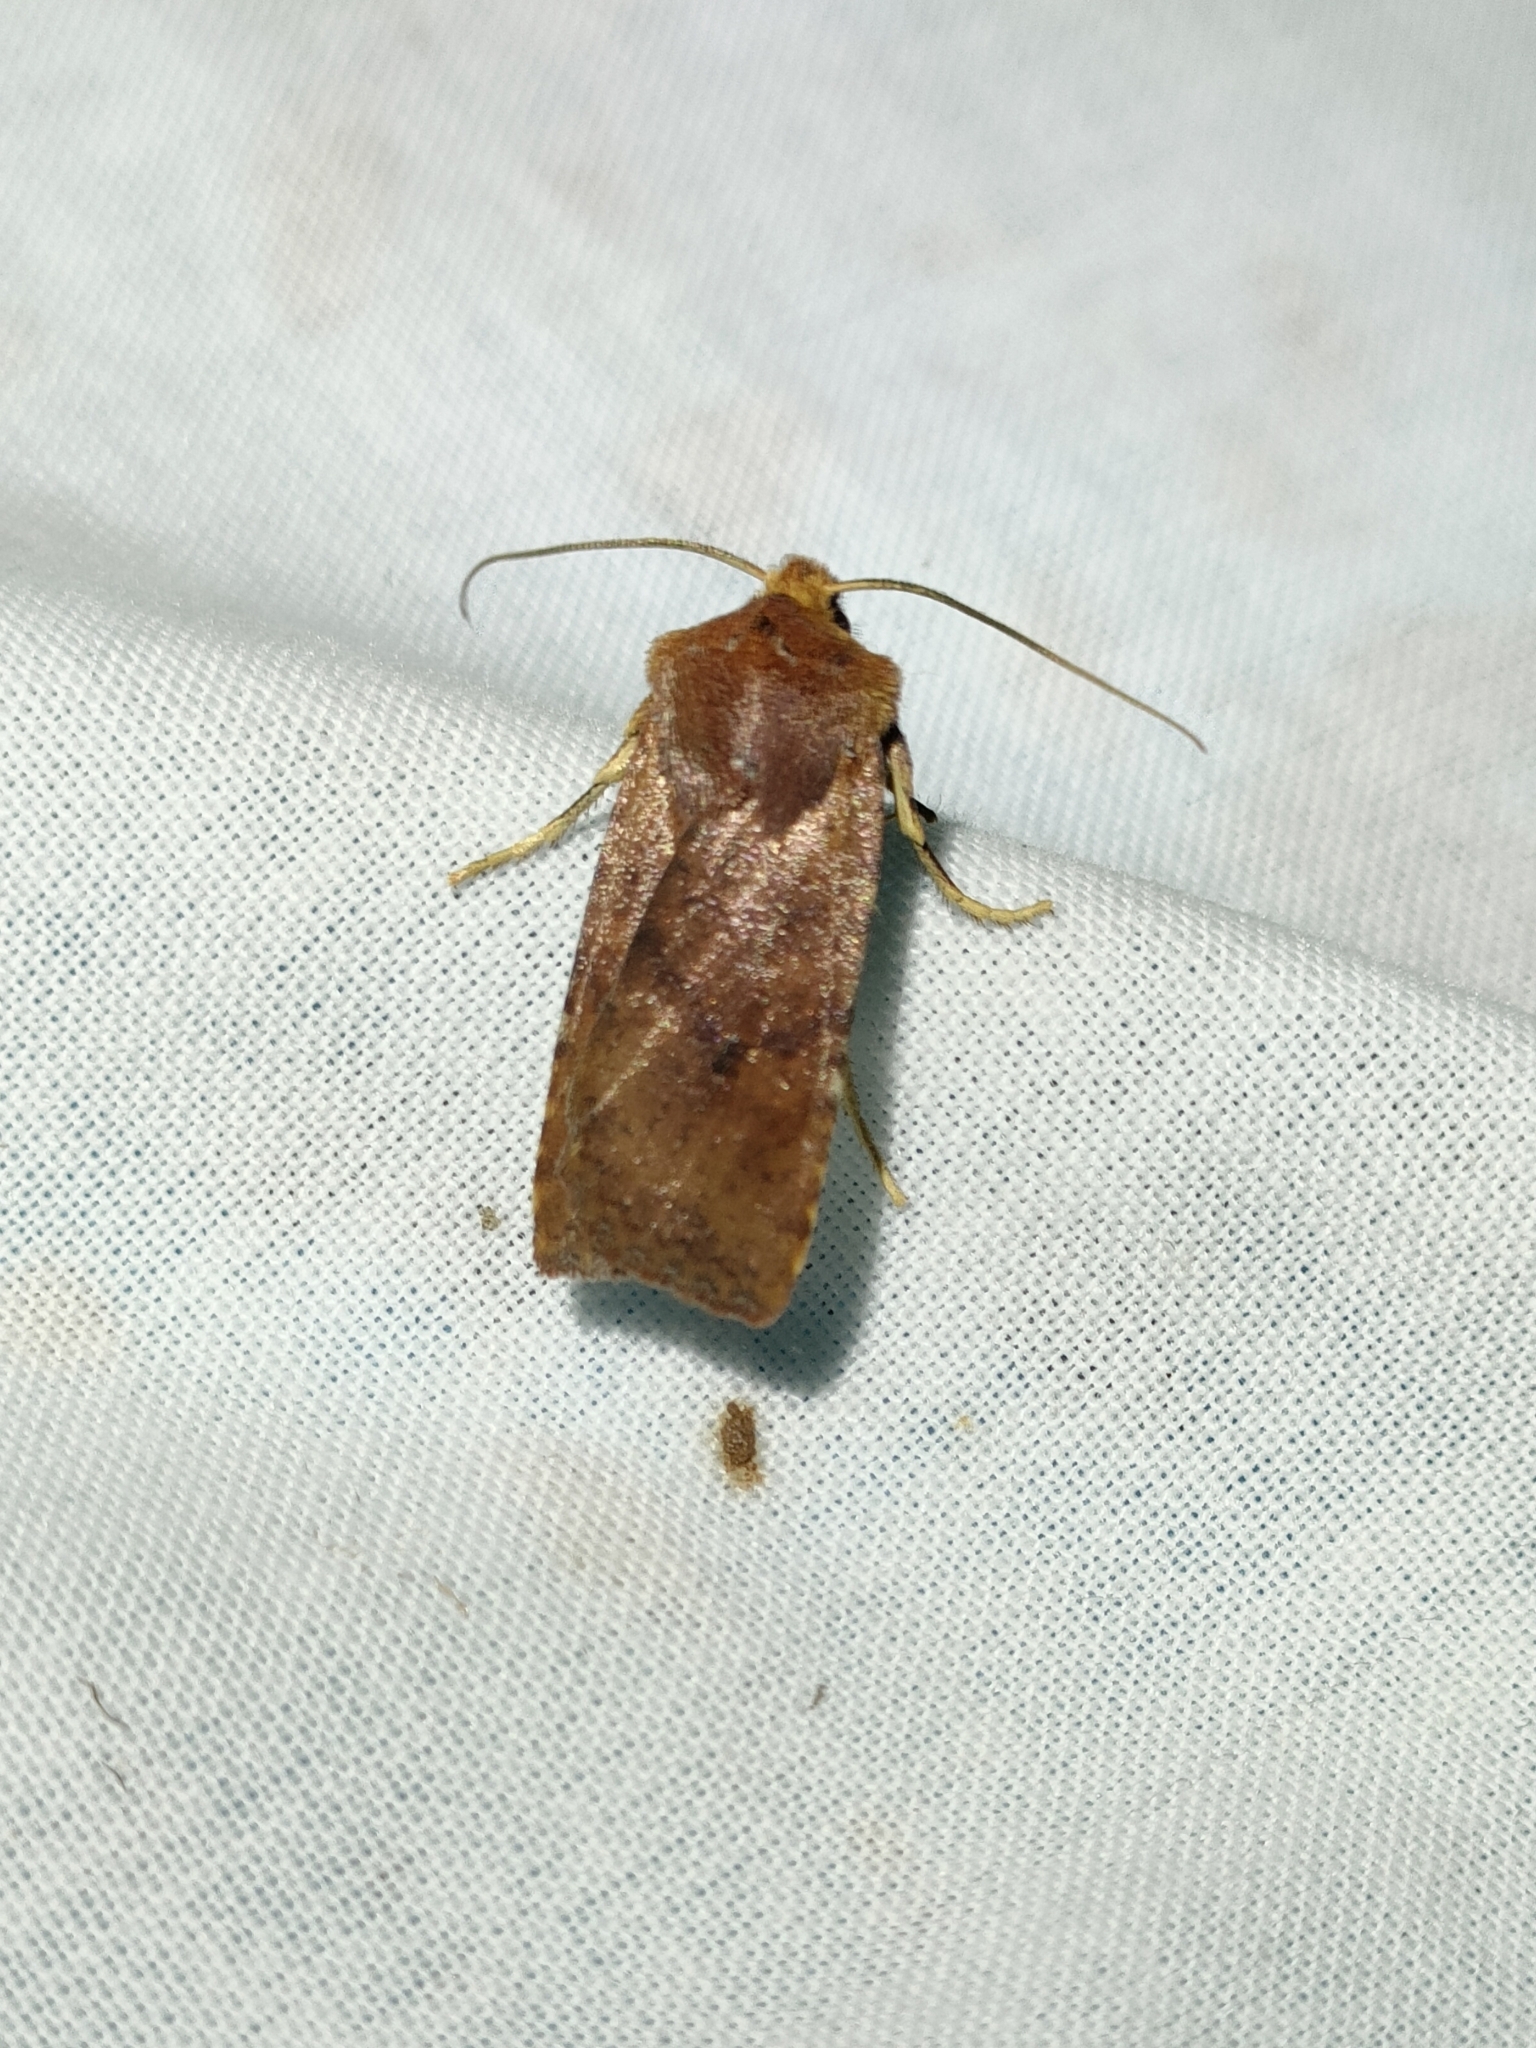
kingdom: Animalia
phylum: Arthropoda
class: Insecta
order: Lepidoptera
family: Noctuidae
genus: Conistra
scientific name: Conistra staudingeri
